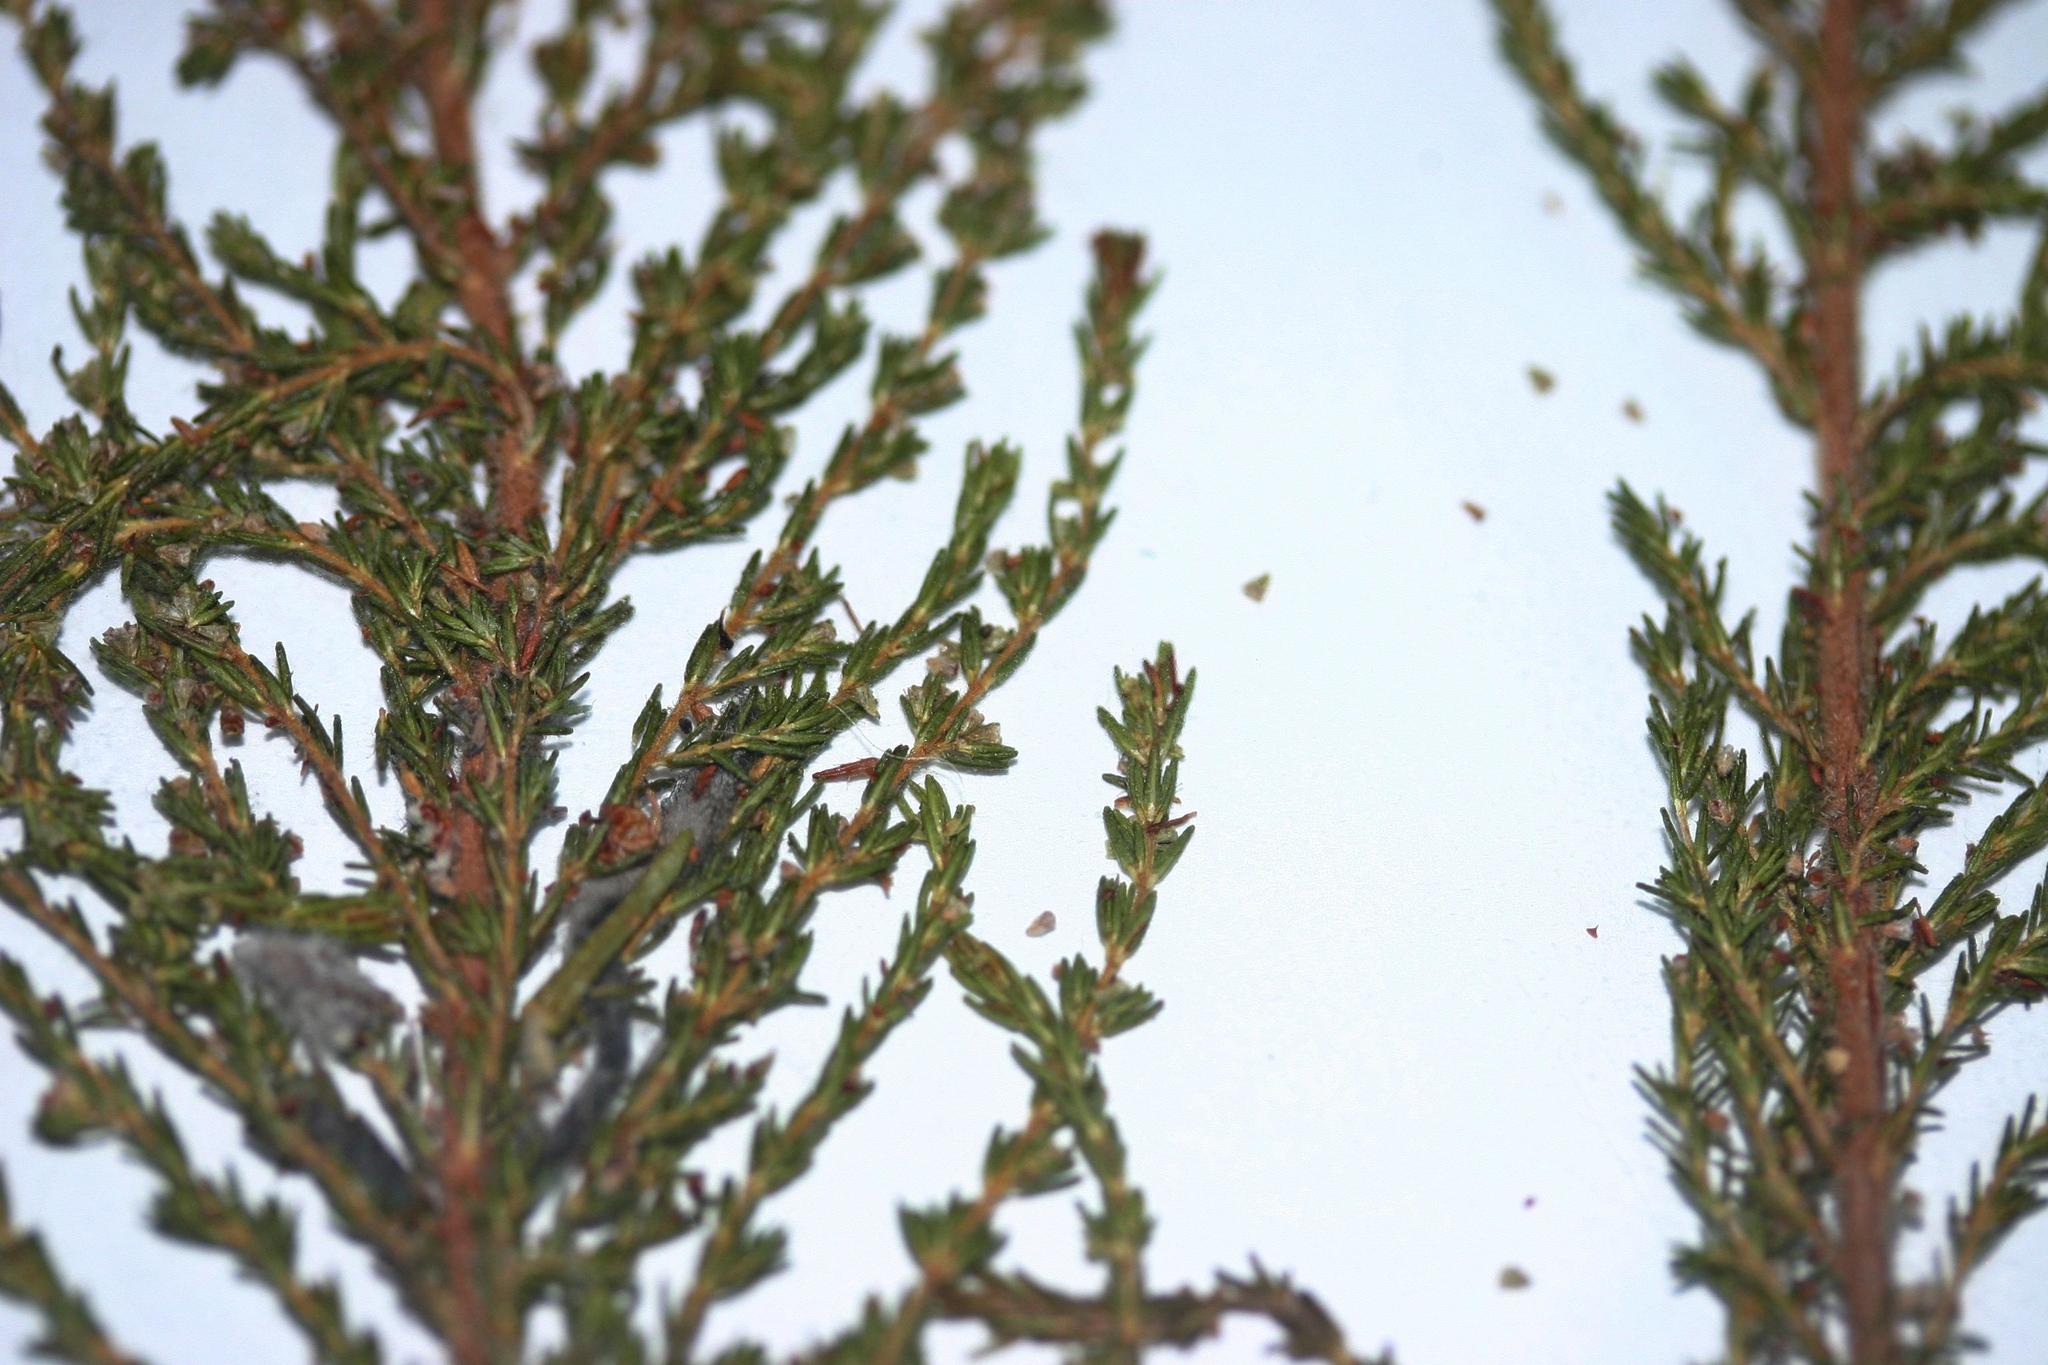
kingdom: Plantae
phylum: Tracheophyta
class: Magnoliopsida
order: Ericales
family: Ericaceae
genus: Erica
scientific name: Erica madida
